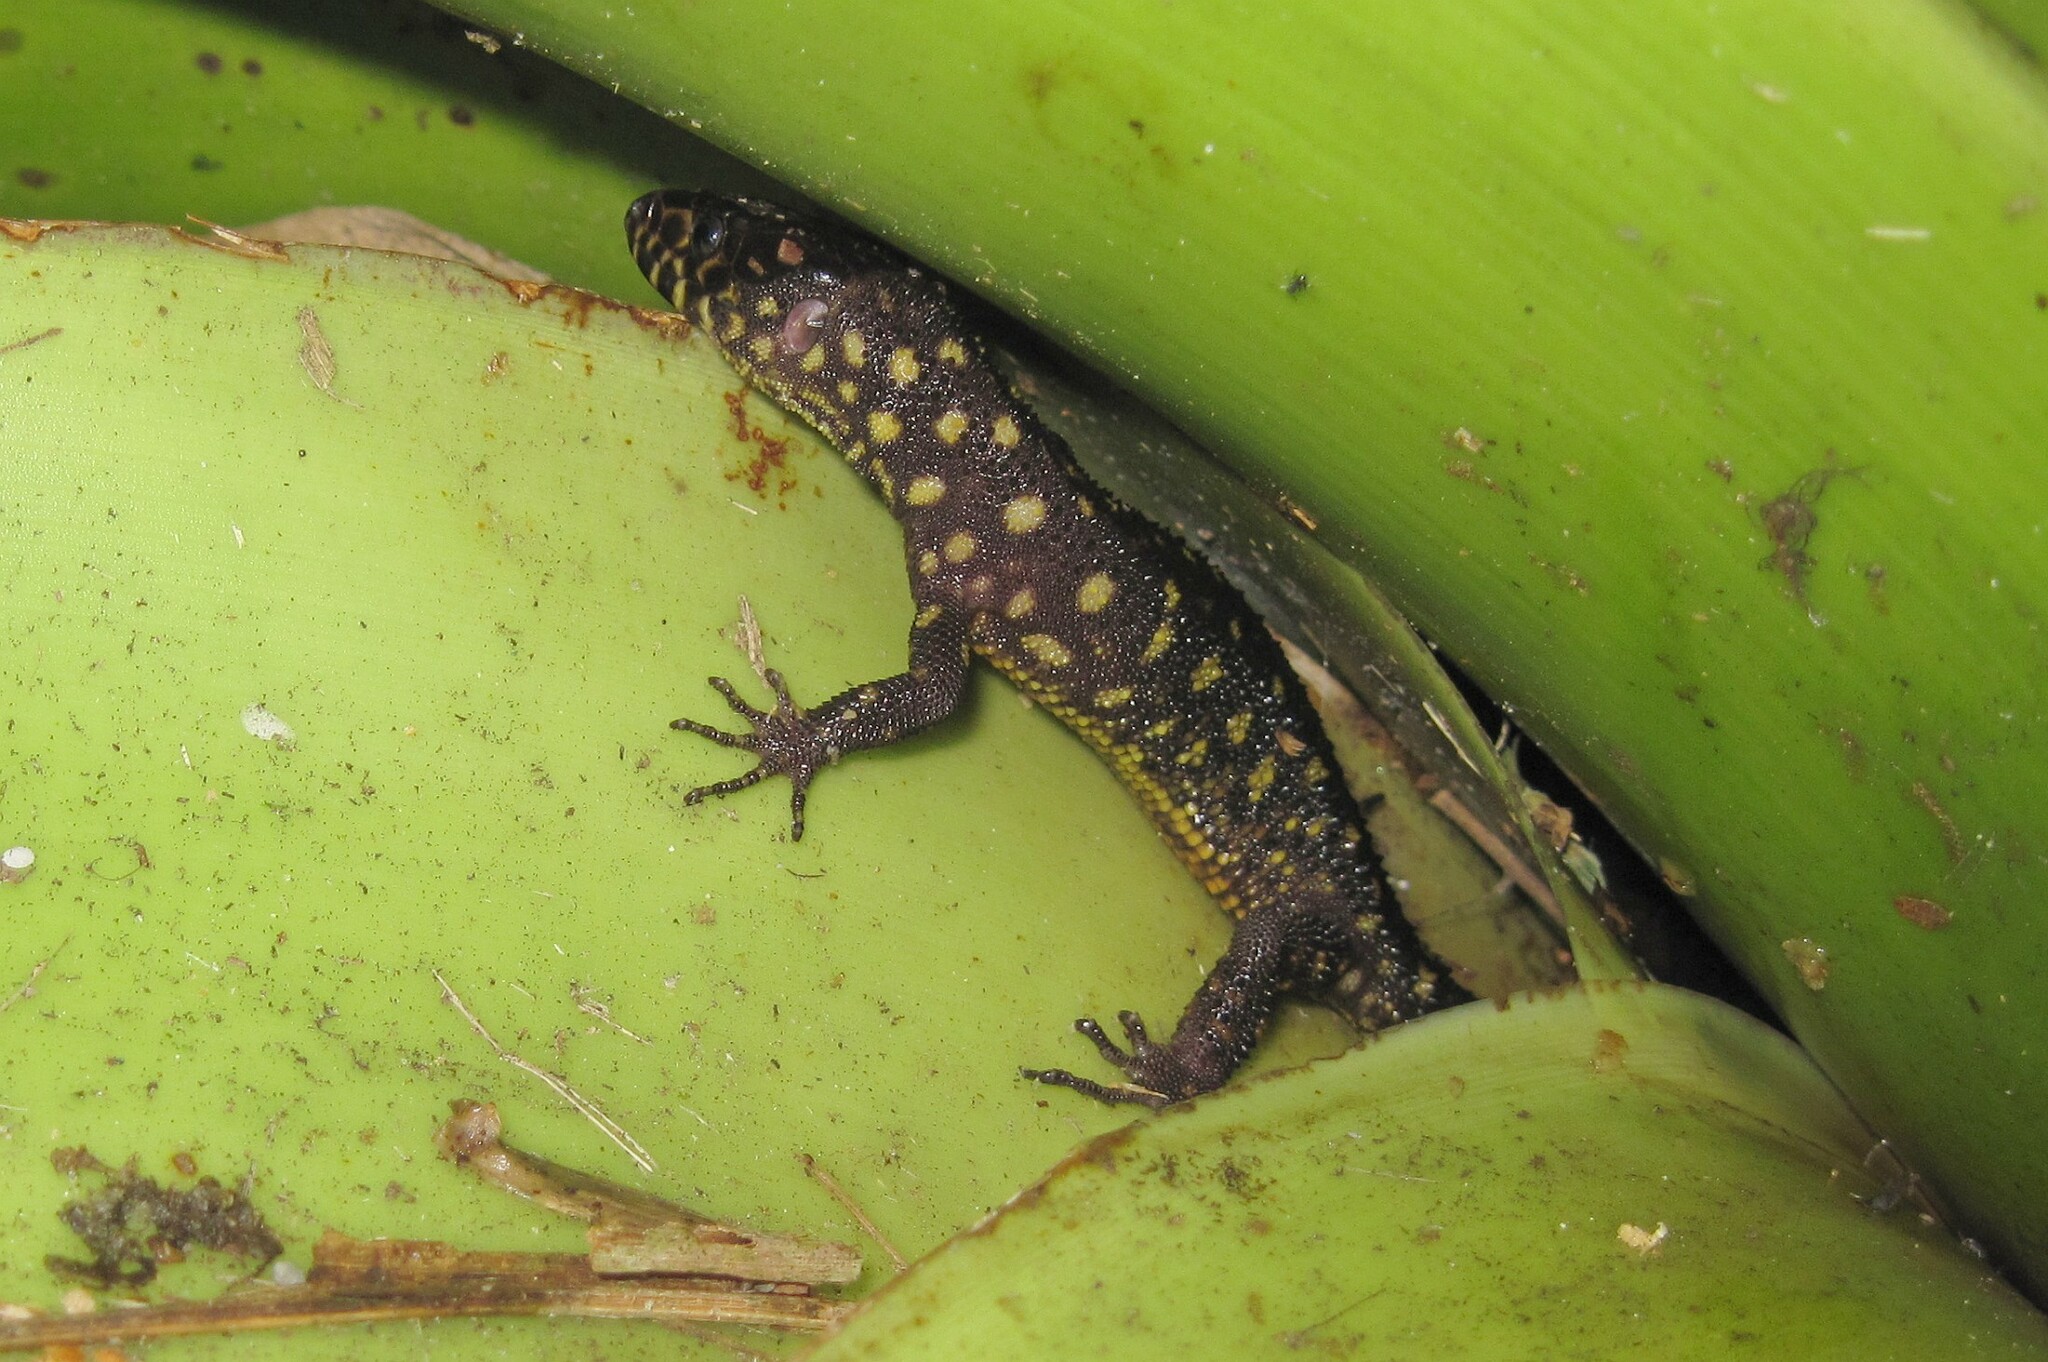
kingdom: Animalia
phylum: Chordata
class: Squamata
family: Xantusiidae
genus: Lepidophyma
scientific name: Lepidophyma flavimaculatum
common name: Yellow-spotted night lizard
